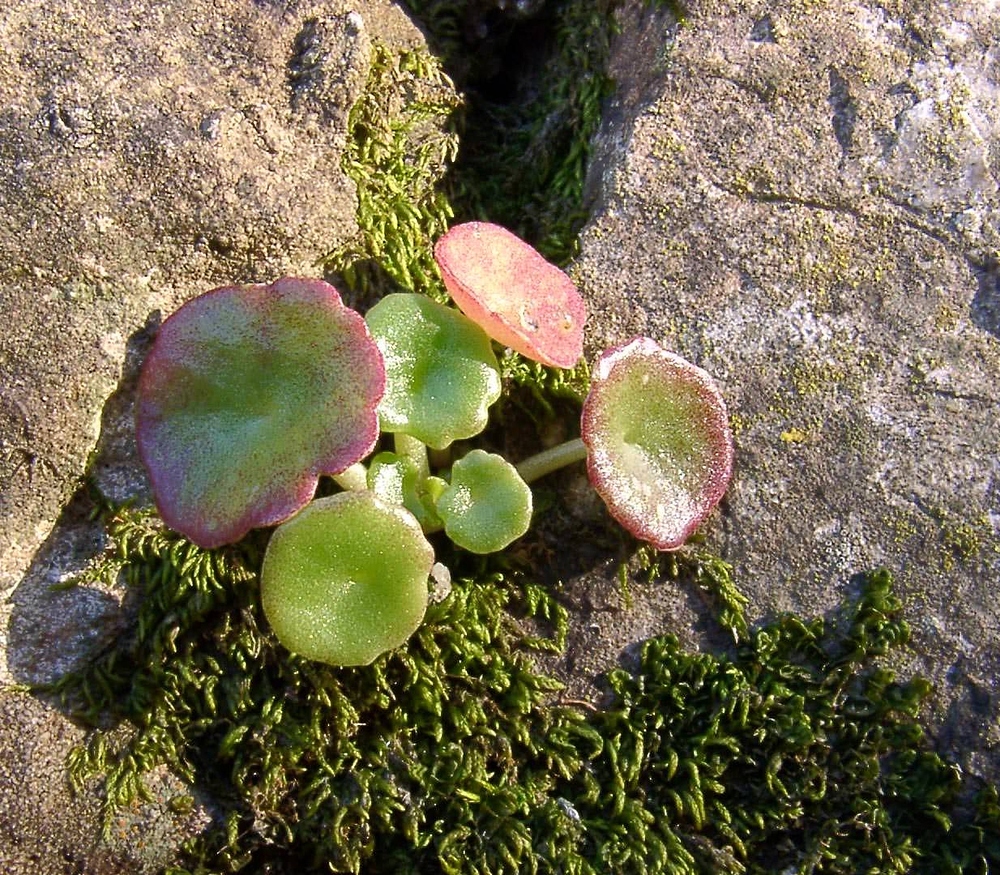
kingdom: Plantae
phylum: Tracheophyta
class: Magnoliopsida
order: Saxifragales
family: Crassulaceae
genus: Umbilicus
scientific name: Umbilicus rupestris
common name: Navelwort
